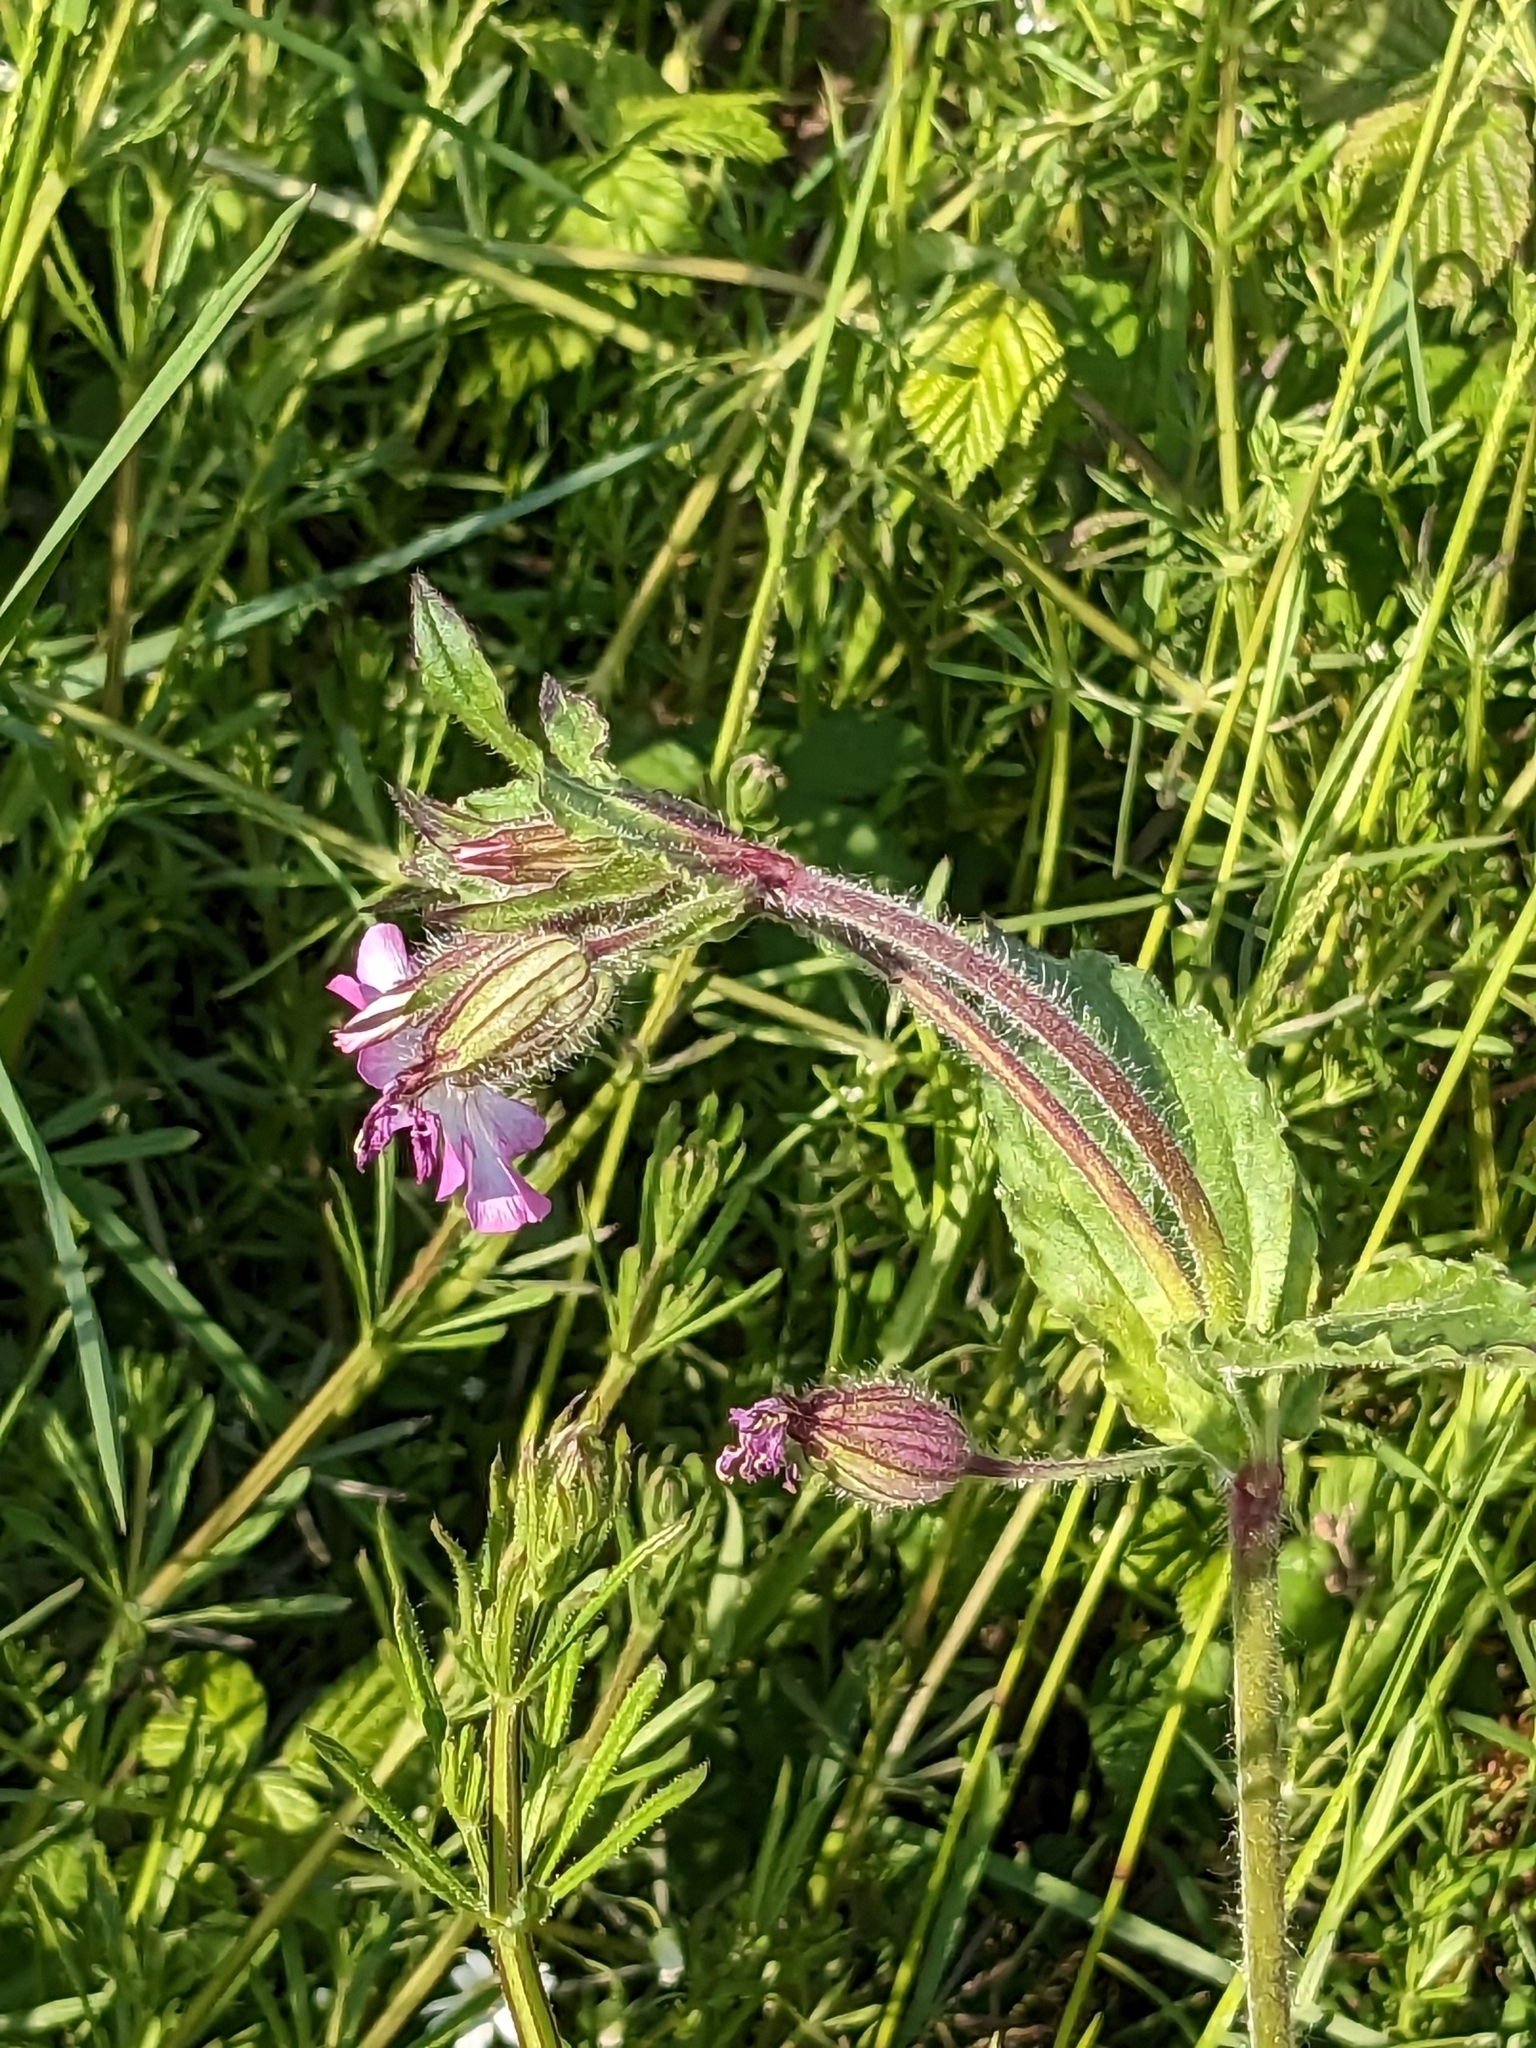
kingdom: Plantae
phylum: Tracheophyta
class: Magnoliopsida
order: Caryophyllales
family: Caryophyllaceae
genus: Silene
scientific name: Silene dioica
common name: Red campion
